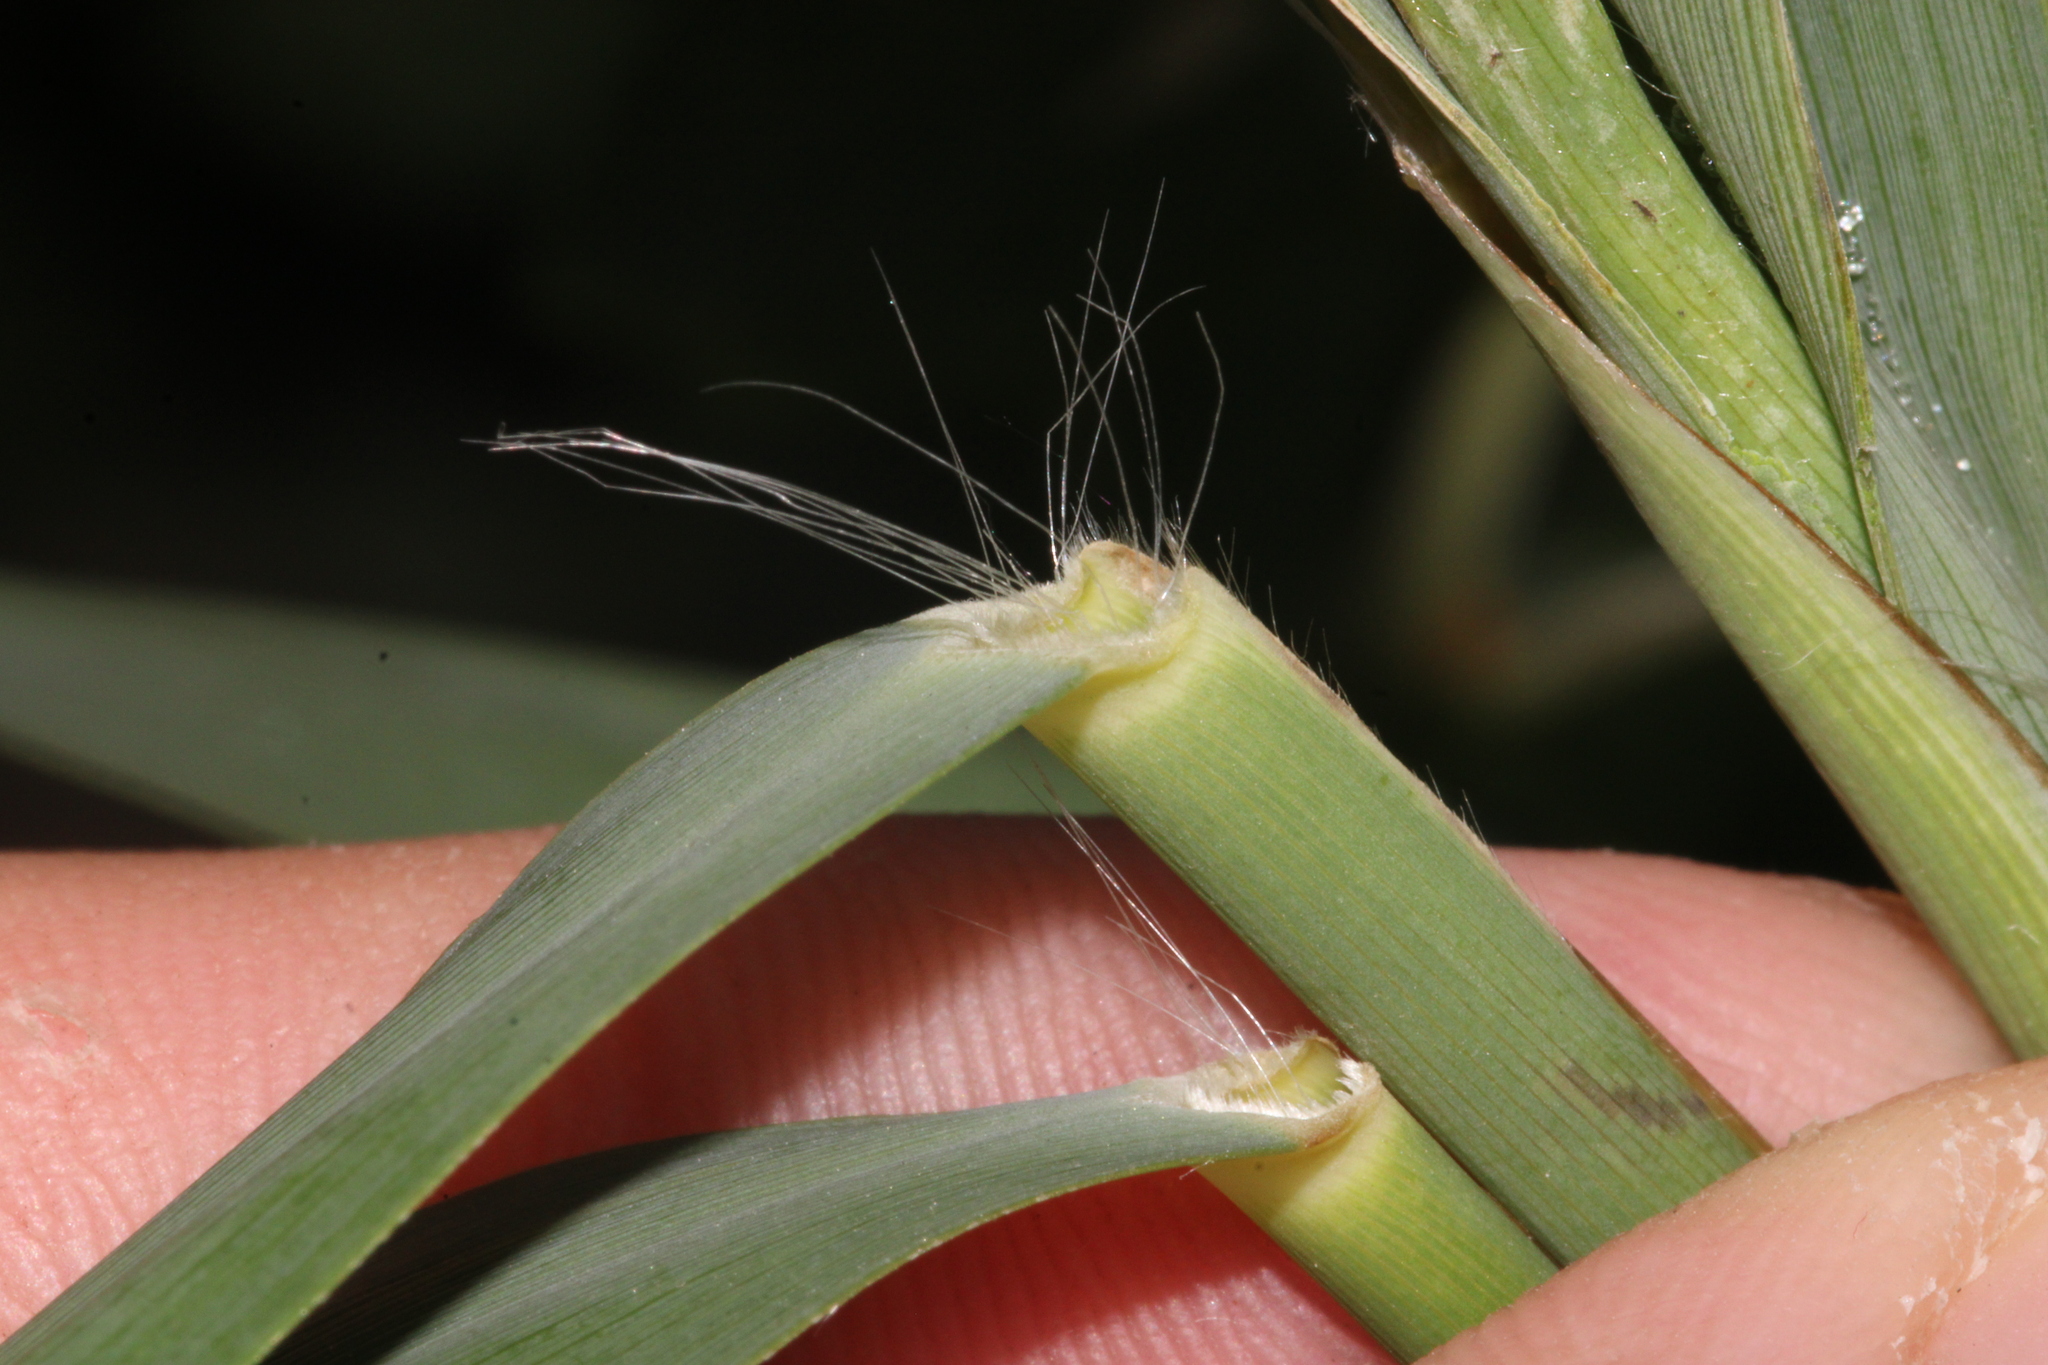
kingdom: Plantae
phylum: Tracheophyta
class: Liliopsida
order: Poales
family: Poaceae
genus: Phragmites
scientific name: Phragmites australis
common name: Common reed
